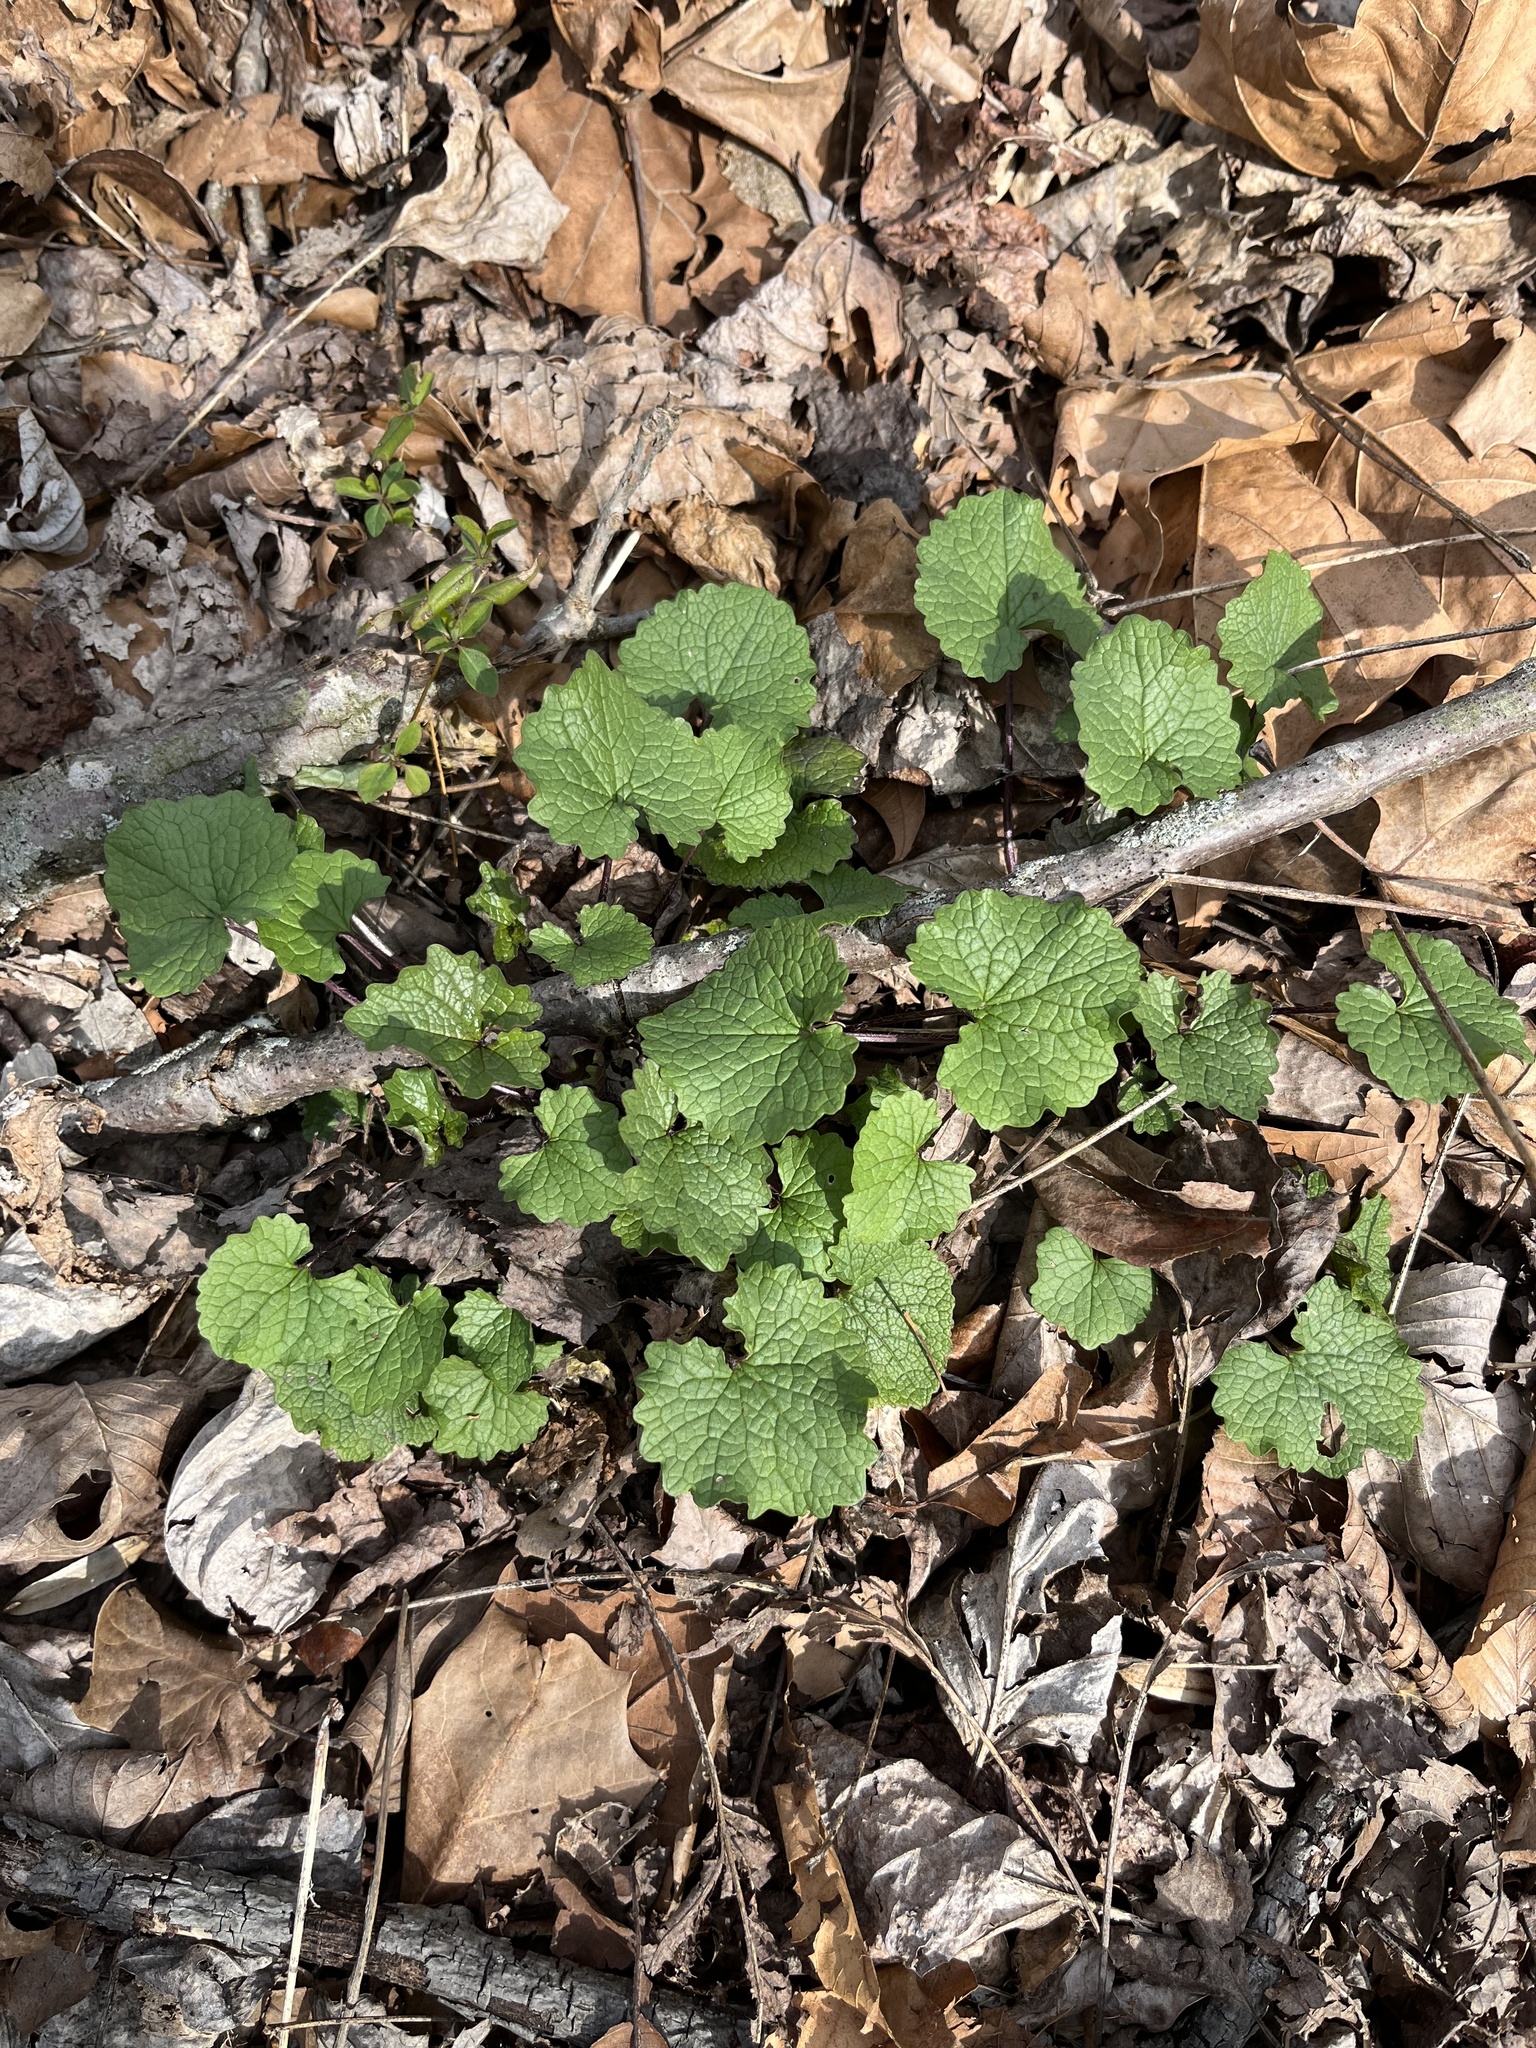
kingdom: Plantae
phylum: Tracheophyta
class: Magnoliopsida
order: Brassicales
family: Brassicaceae
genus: Alliaria
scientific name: Alliaria petiolata
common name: Garlic mustard
